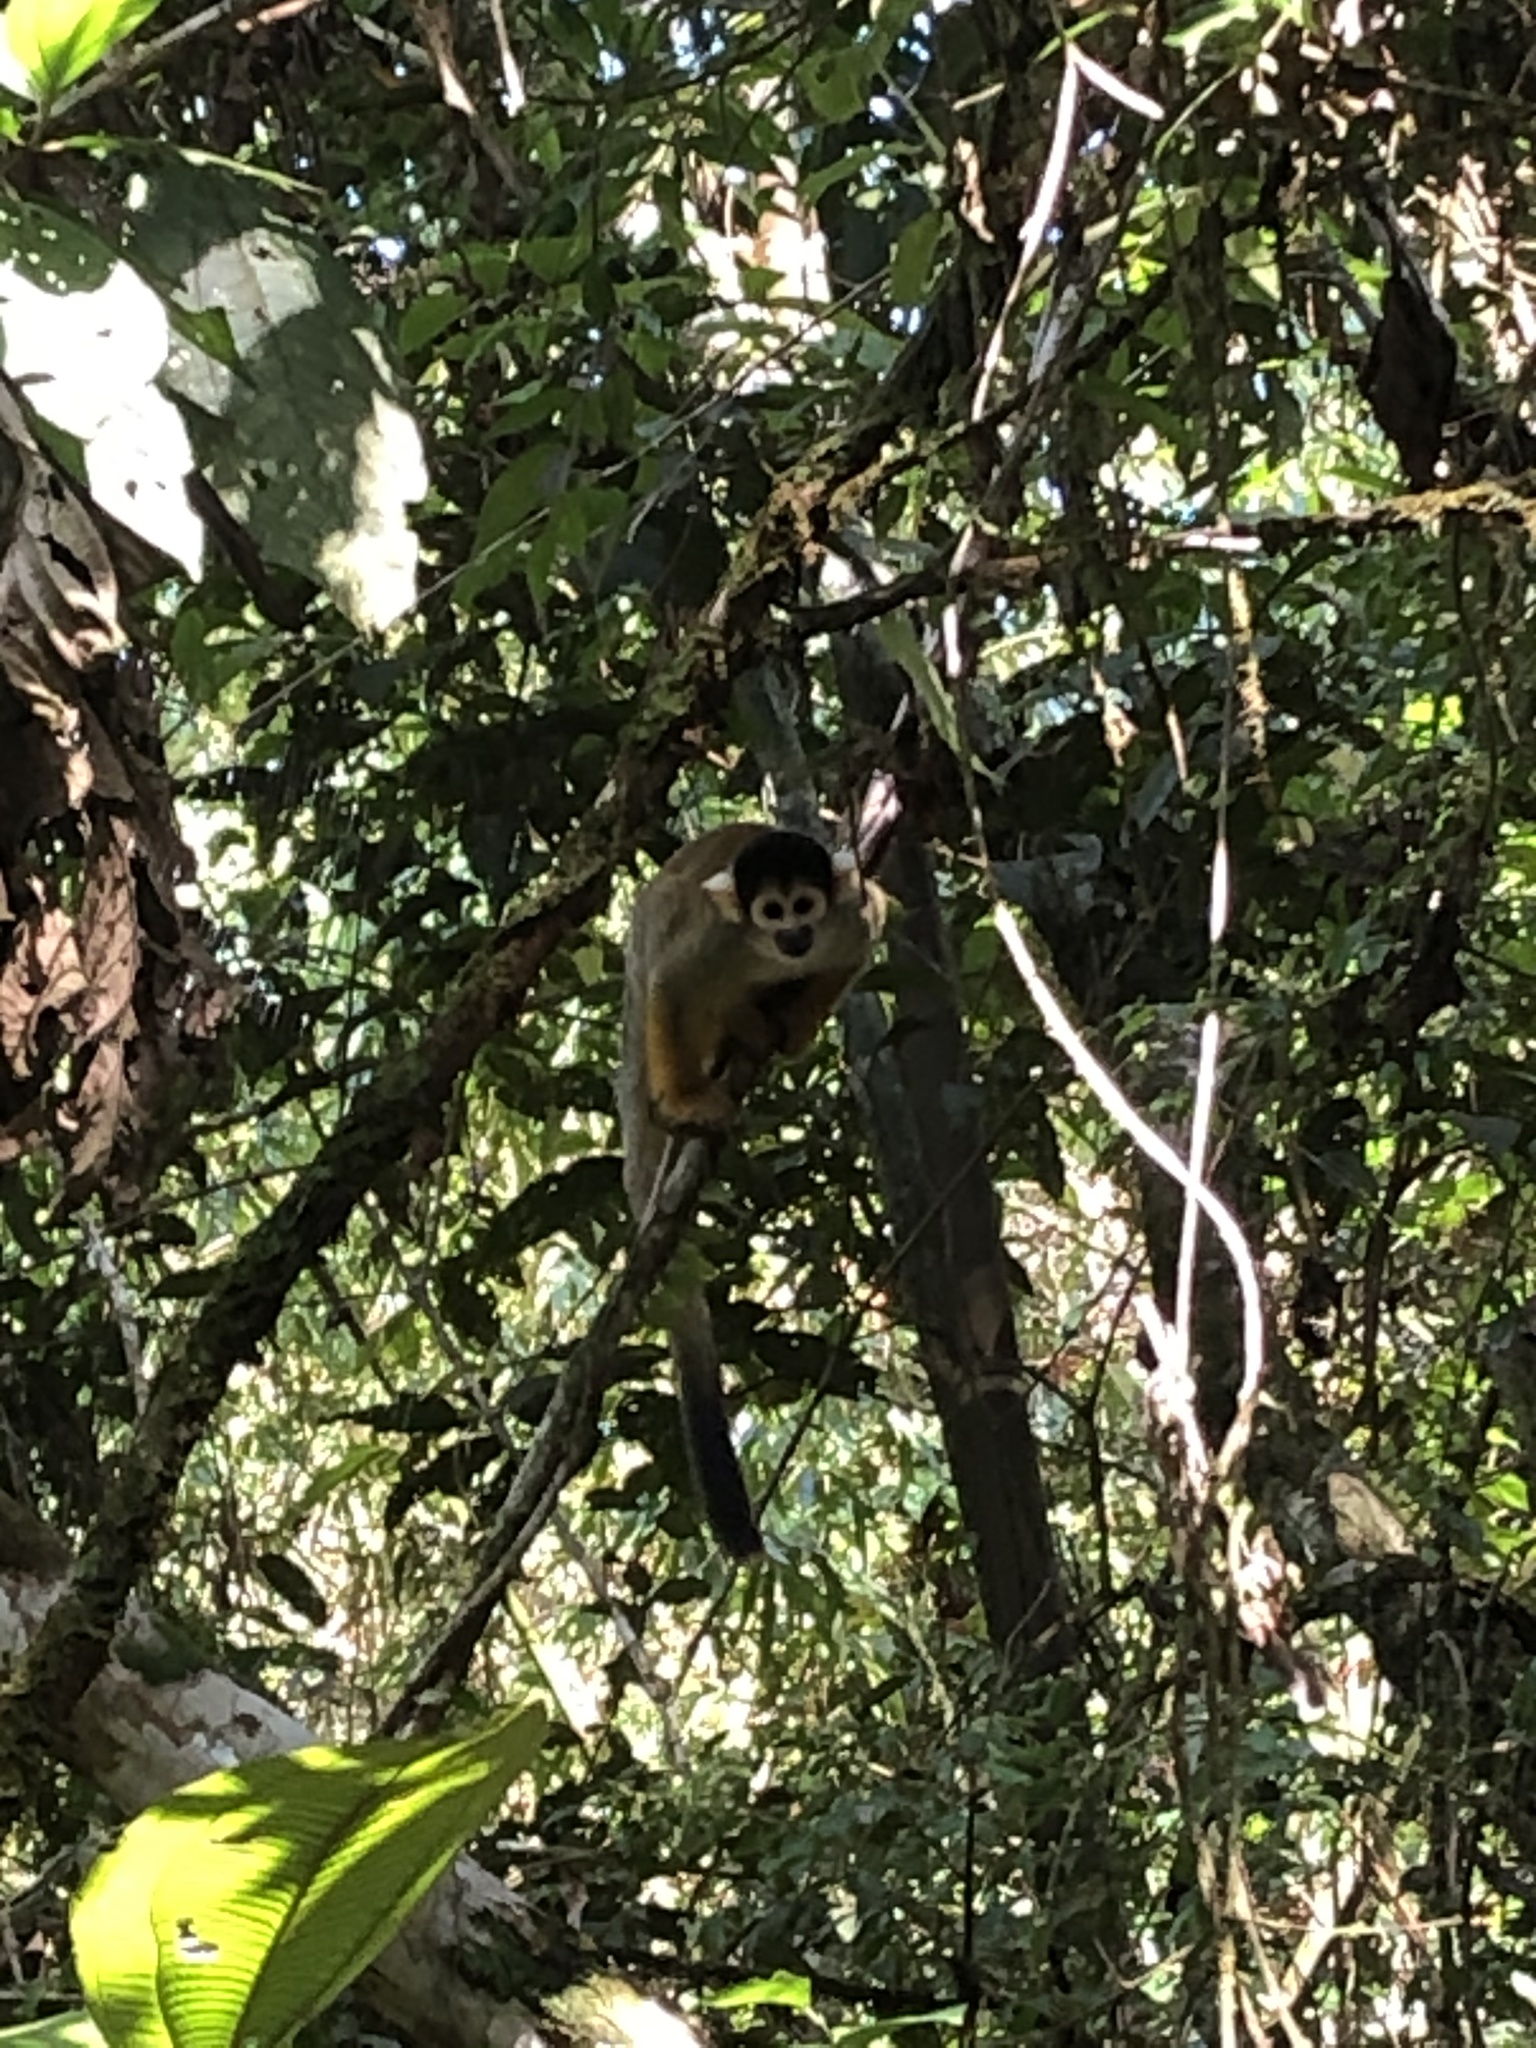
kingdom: Animalia
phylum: Chordata
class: Mammalia
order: Primates
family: Cebidae
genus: Saimiri
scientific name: Saimiri boliviensis
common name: Black-capped squirrel monkey
